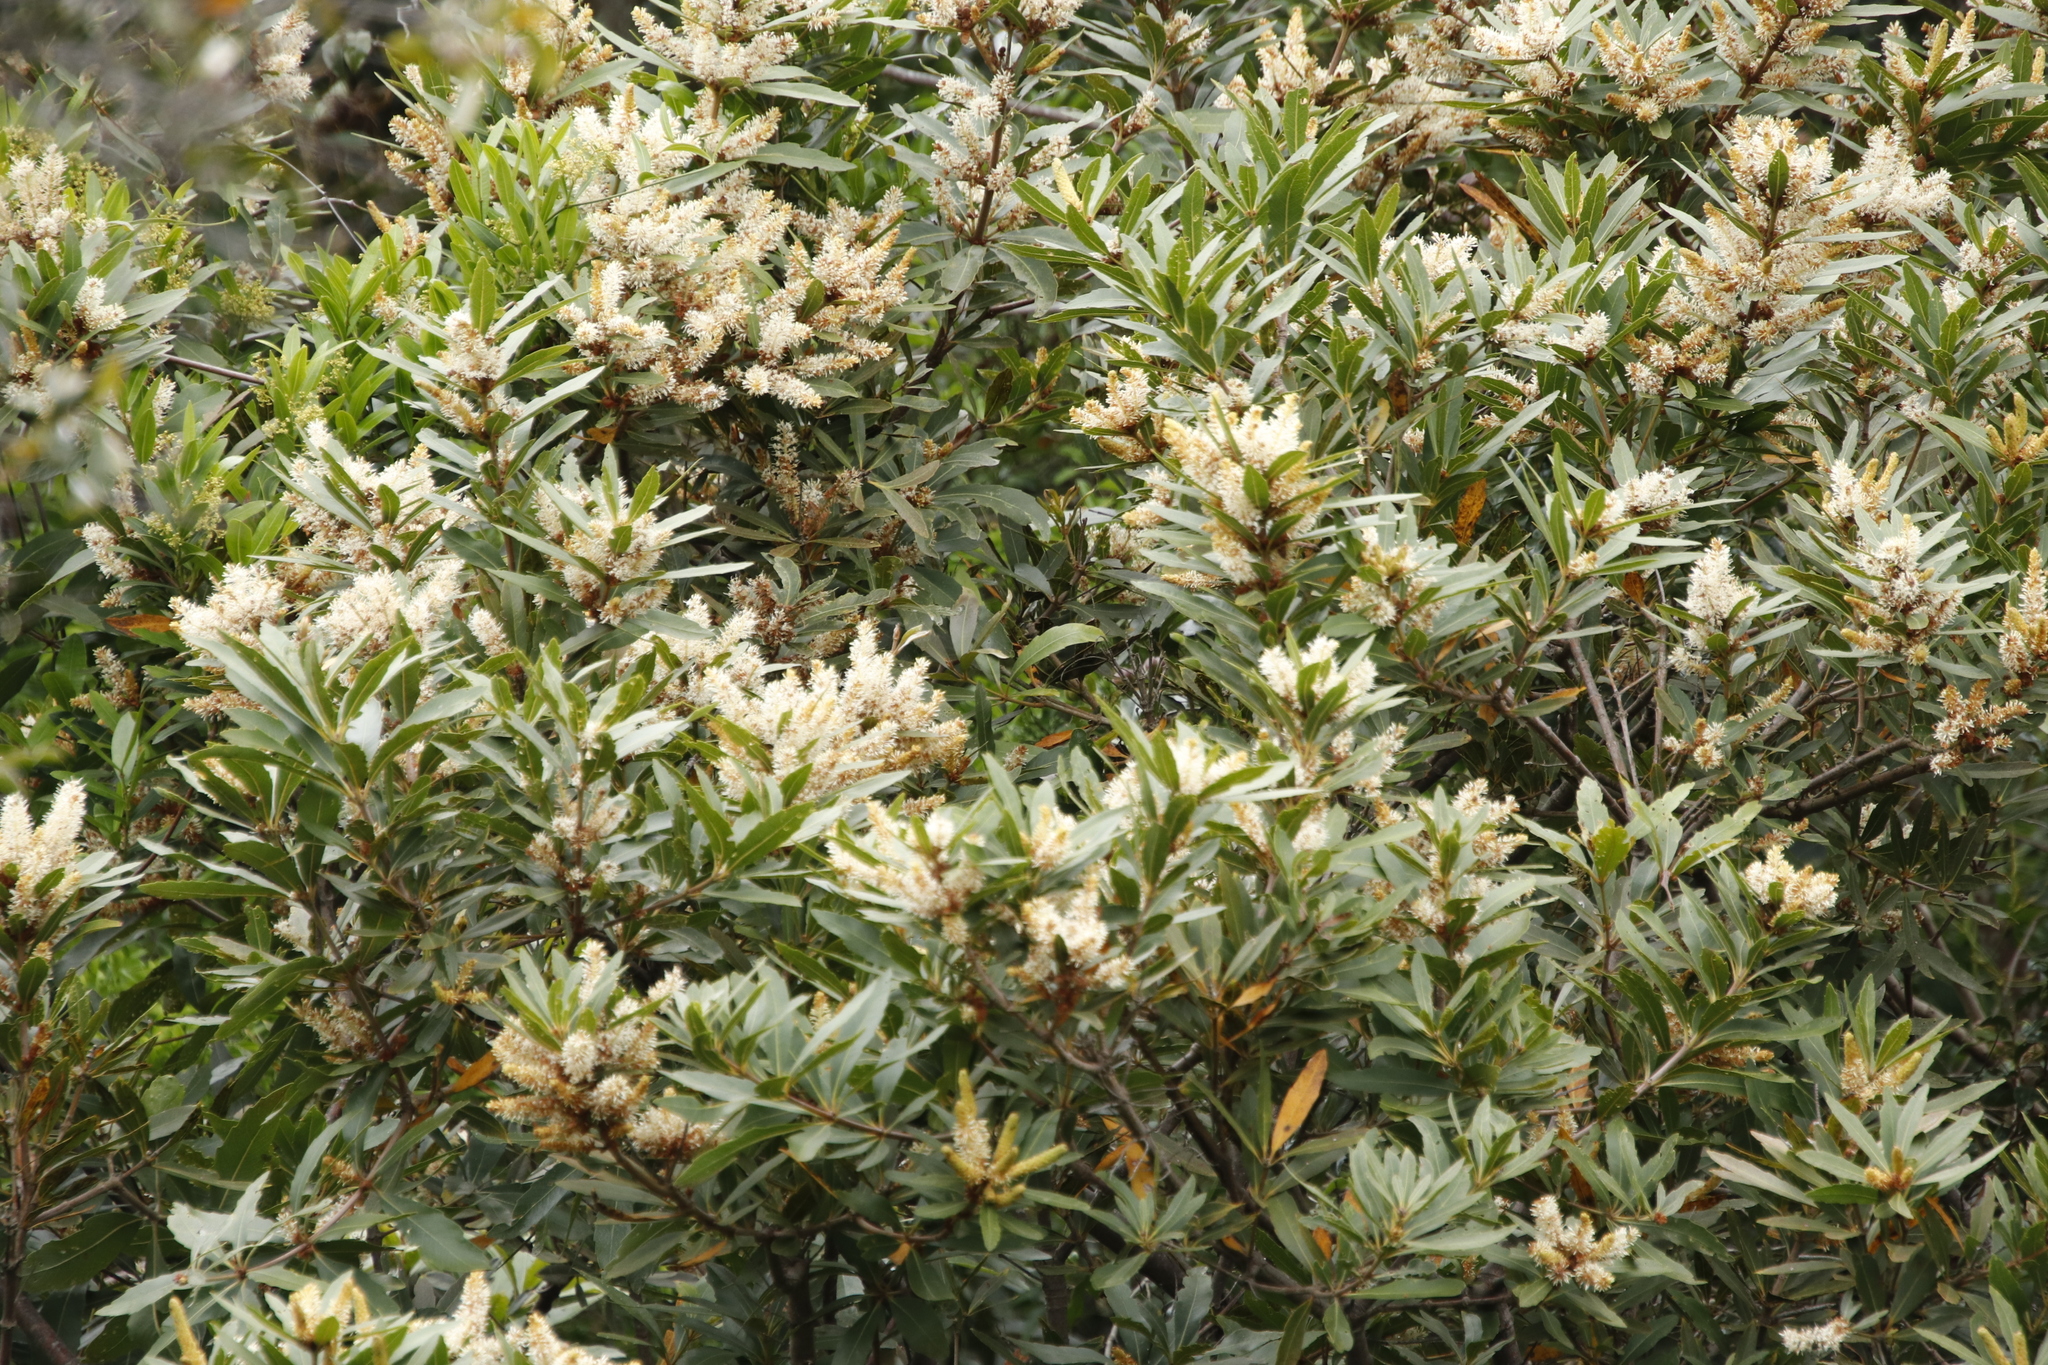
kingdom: Plantae
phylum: Tracheophyta
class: Magnoliopsida
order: Proteales
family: Proteaceae
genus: Brabejum
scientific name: Brabejum stellatifolium
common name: Wild almond
